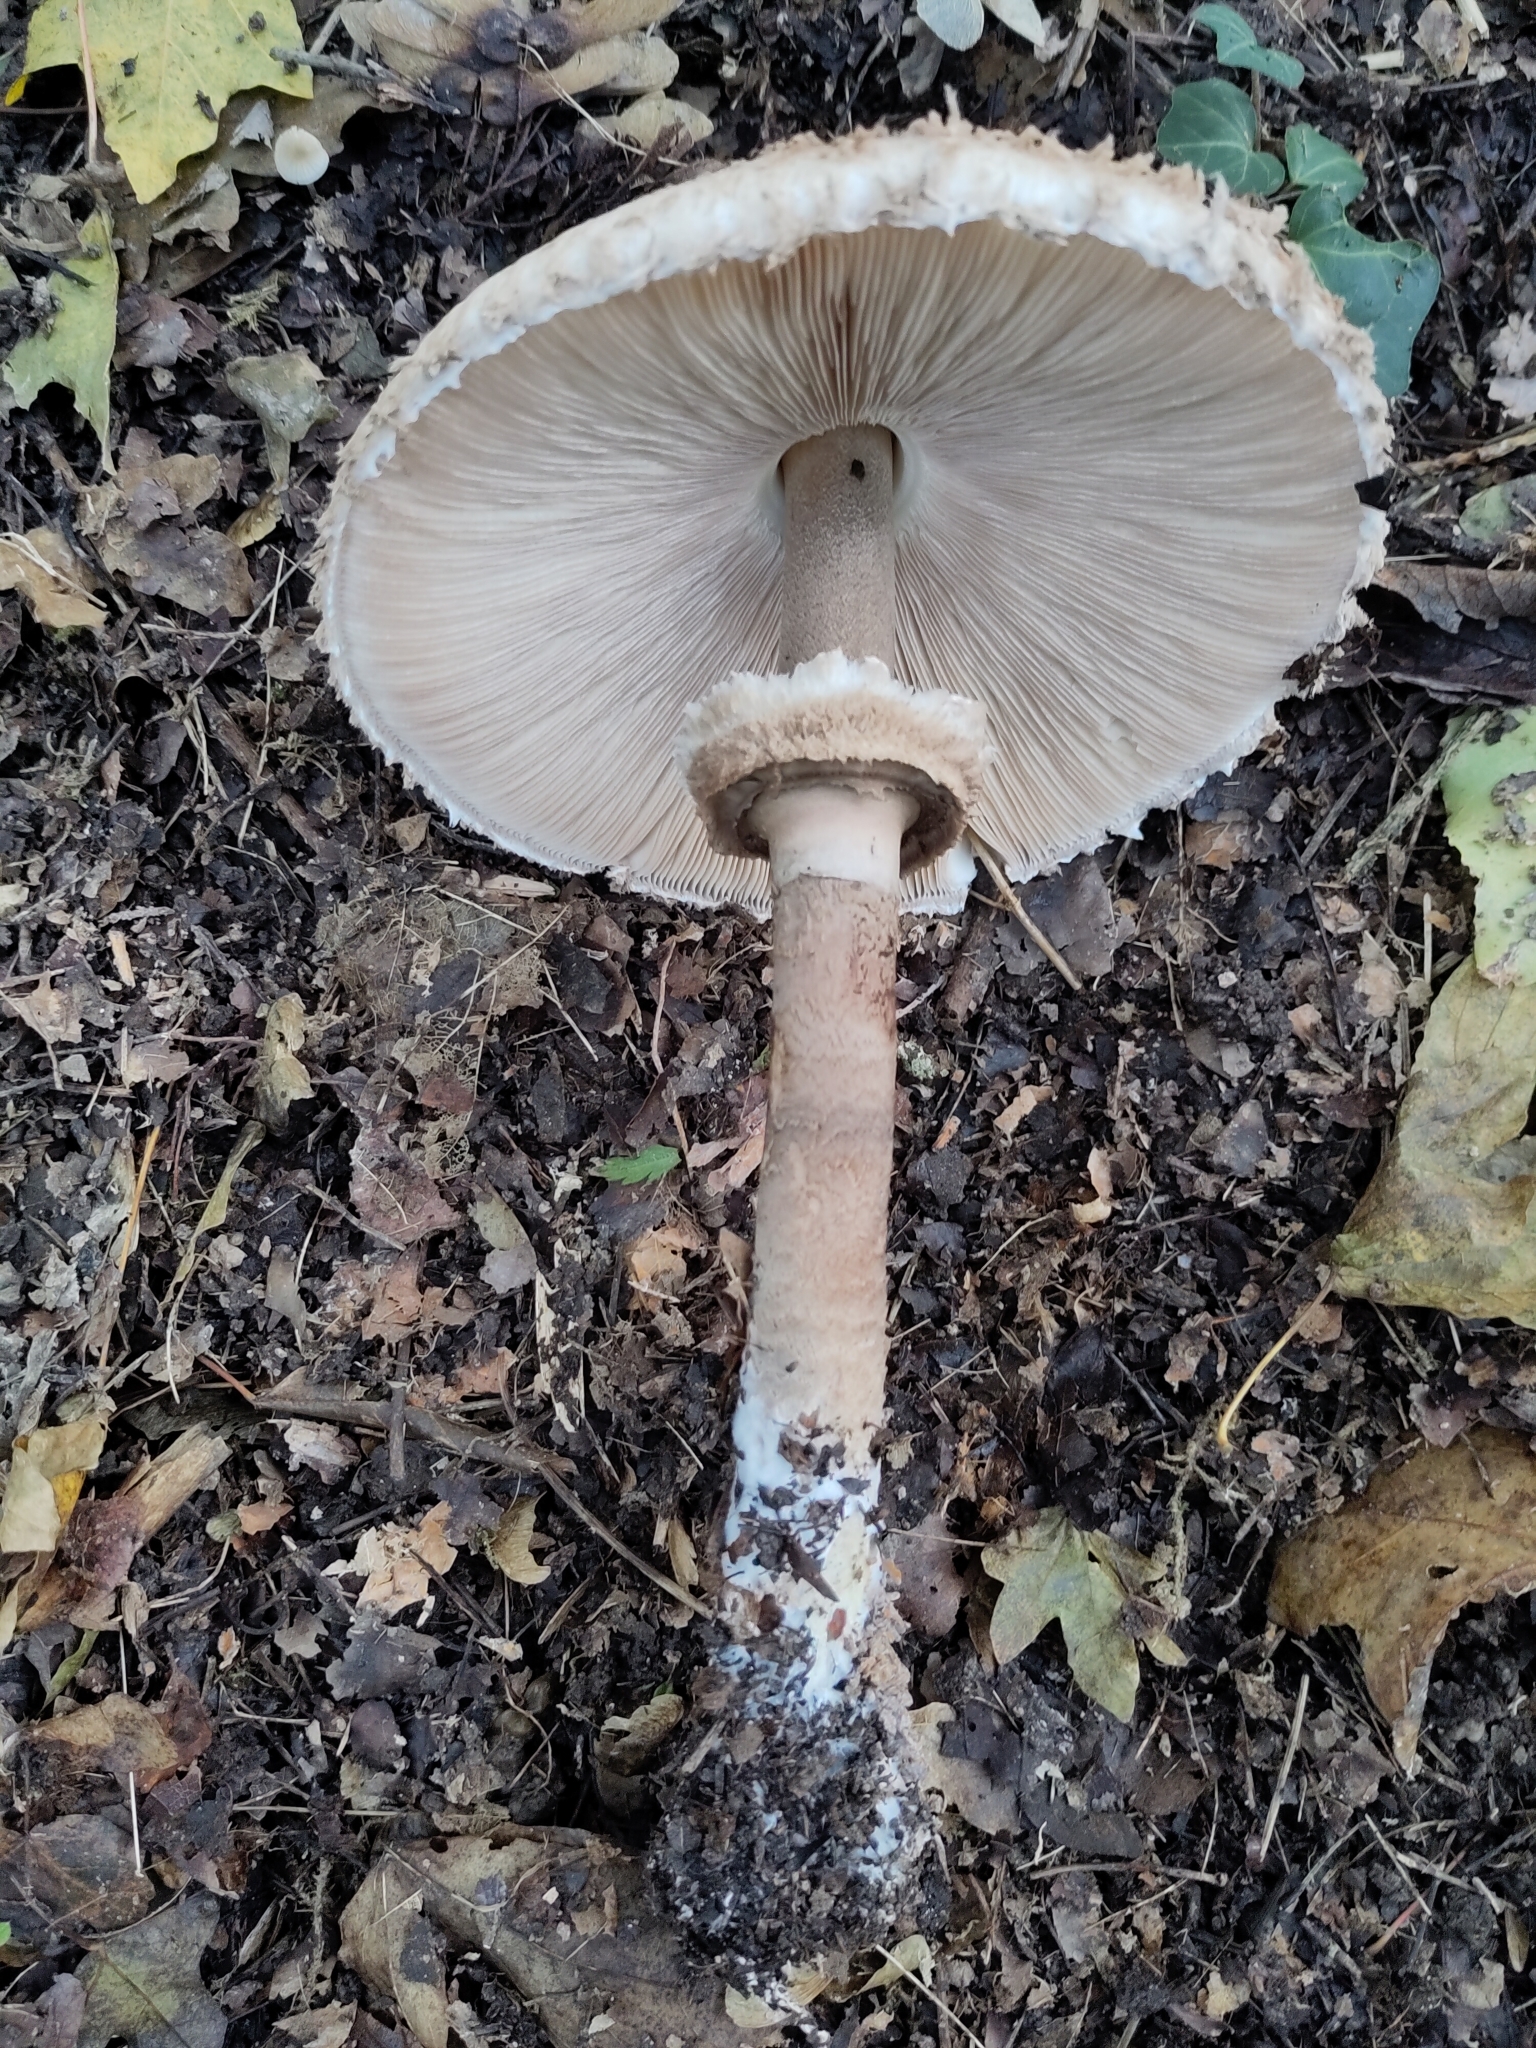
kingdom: Fungi
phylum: Basidiomycota
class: Agaricomycetes
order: Agaricales
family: Agaricaceae
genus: Macrolepiota
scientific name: Macrolepiota procera
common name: Parasol
